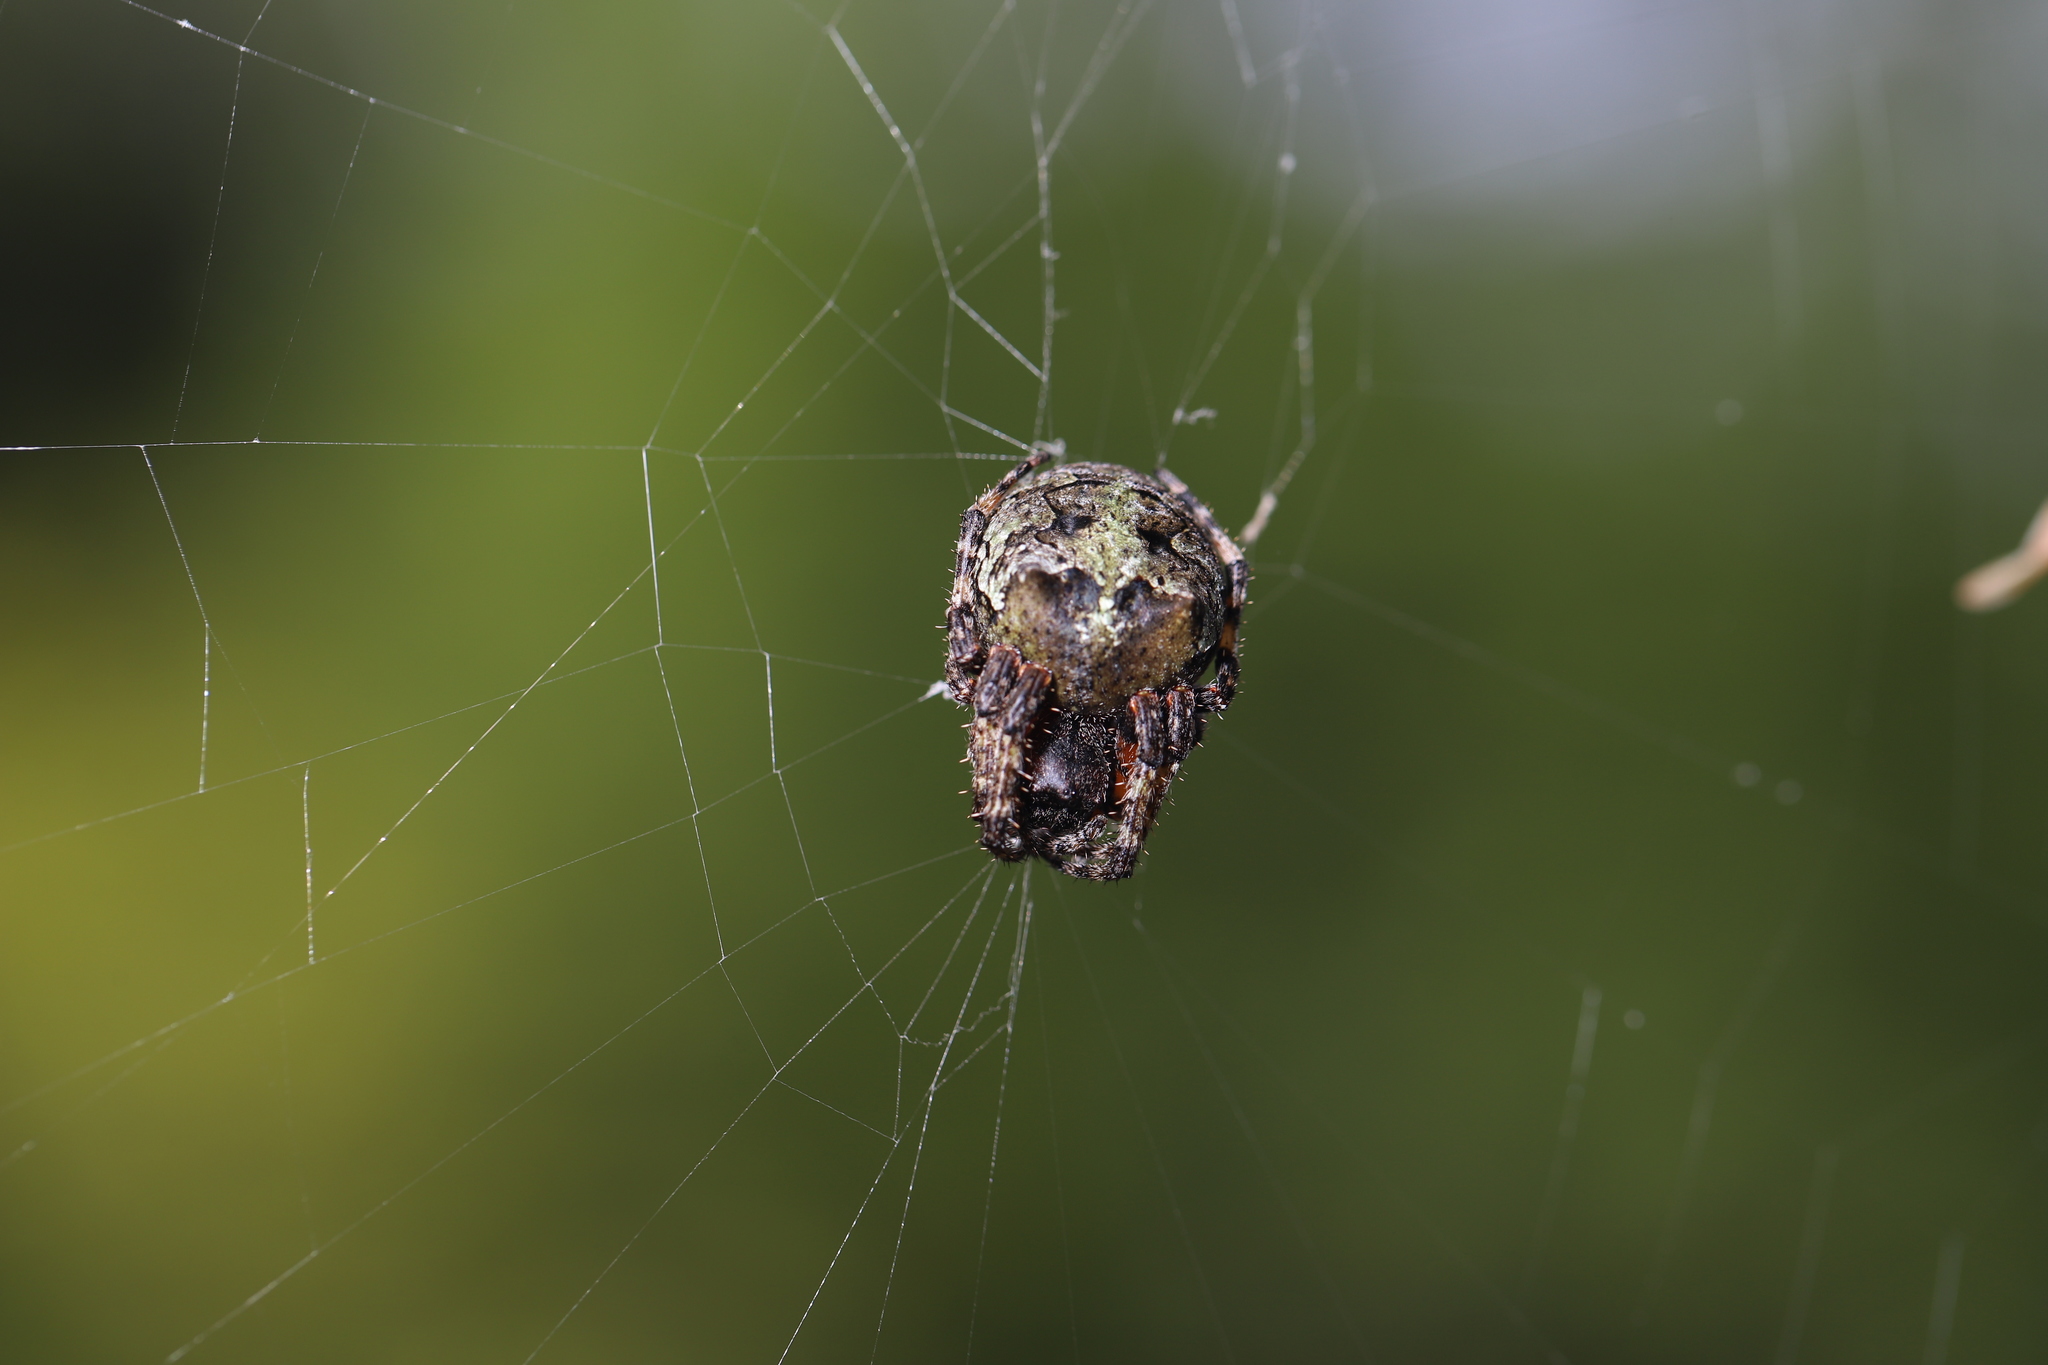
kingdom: Animalia
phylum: Arthropoda
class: Arachnida
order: Araneae
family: Araneidae
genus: Araneus
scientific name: Araneus bicentenarius
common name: Giant lichen orbweaver
